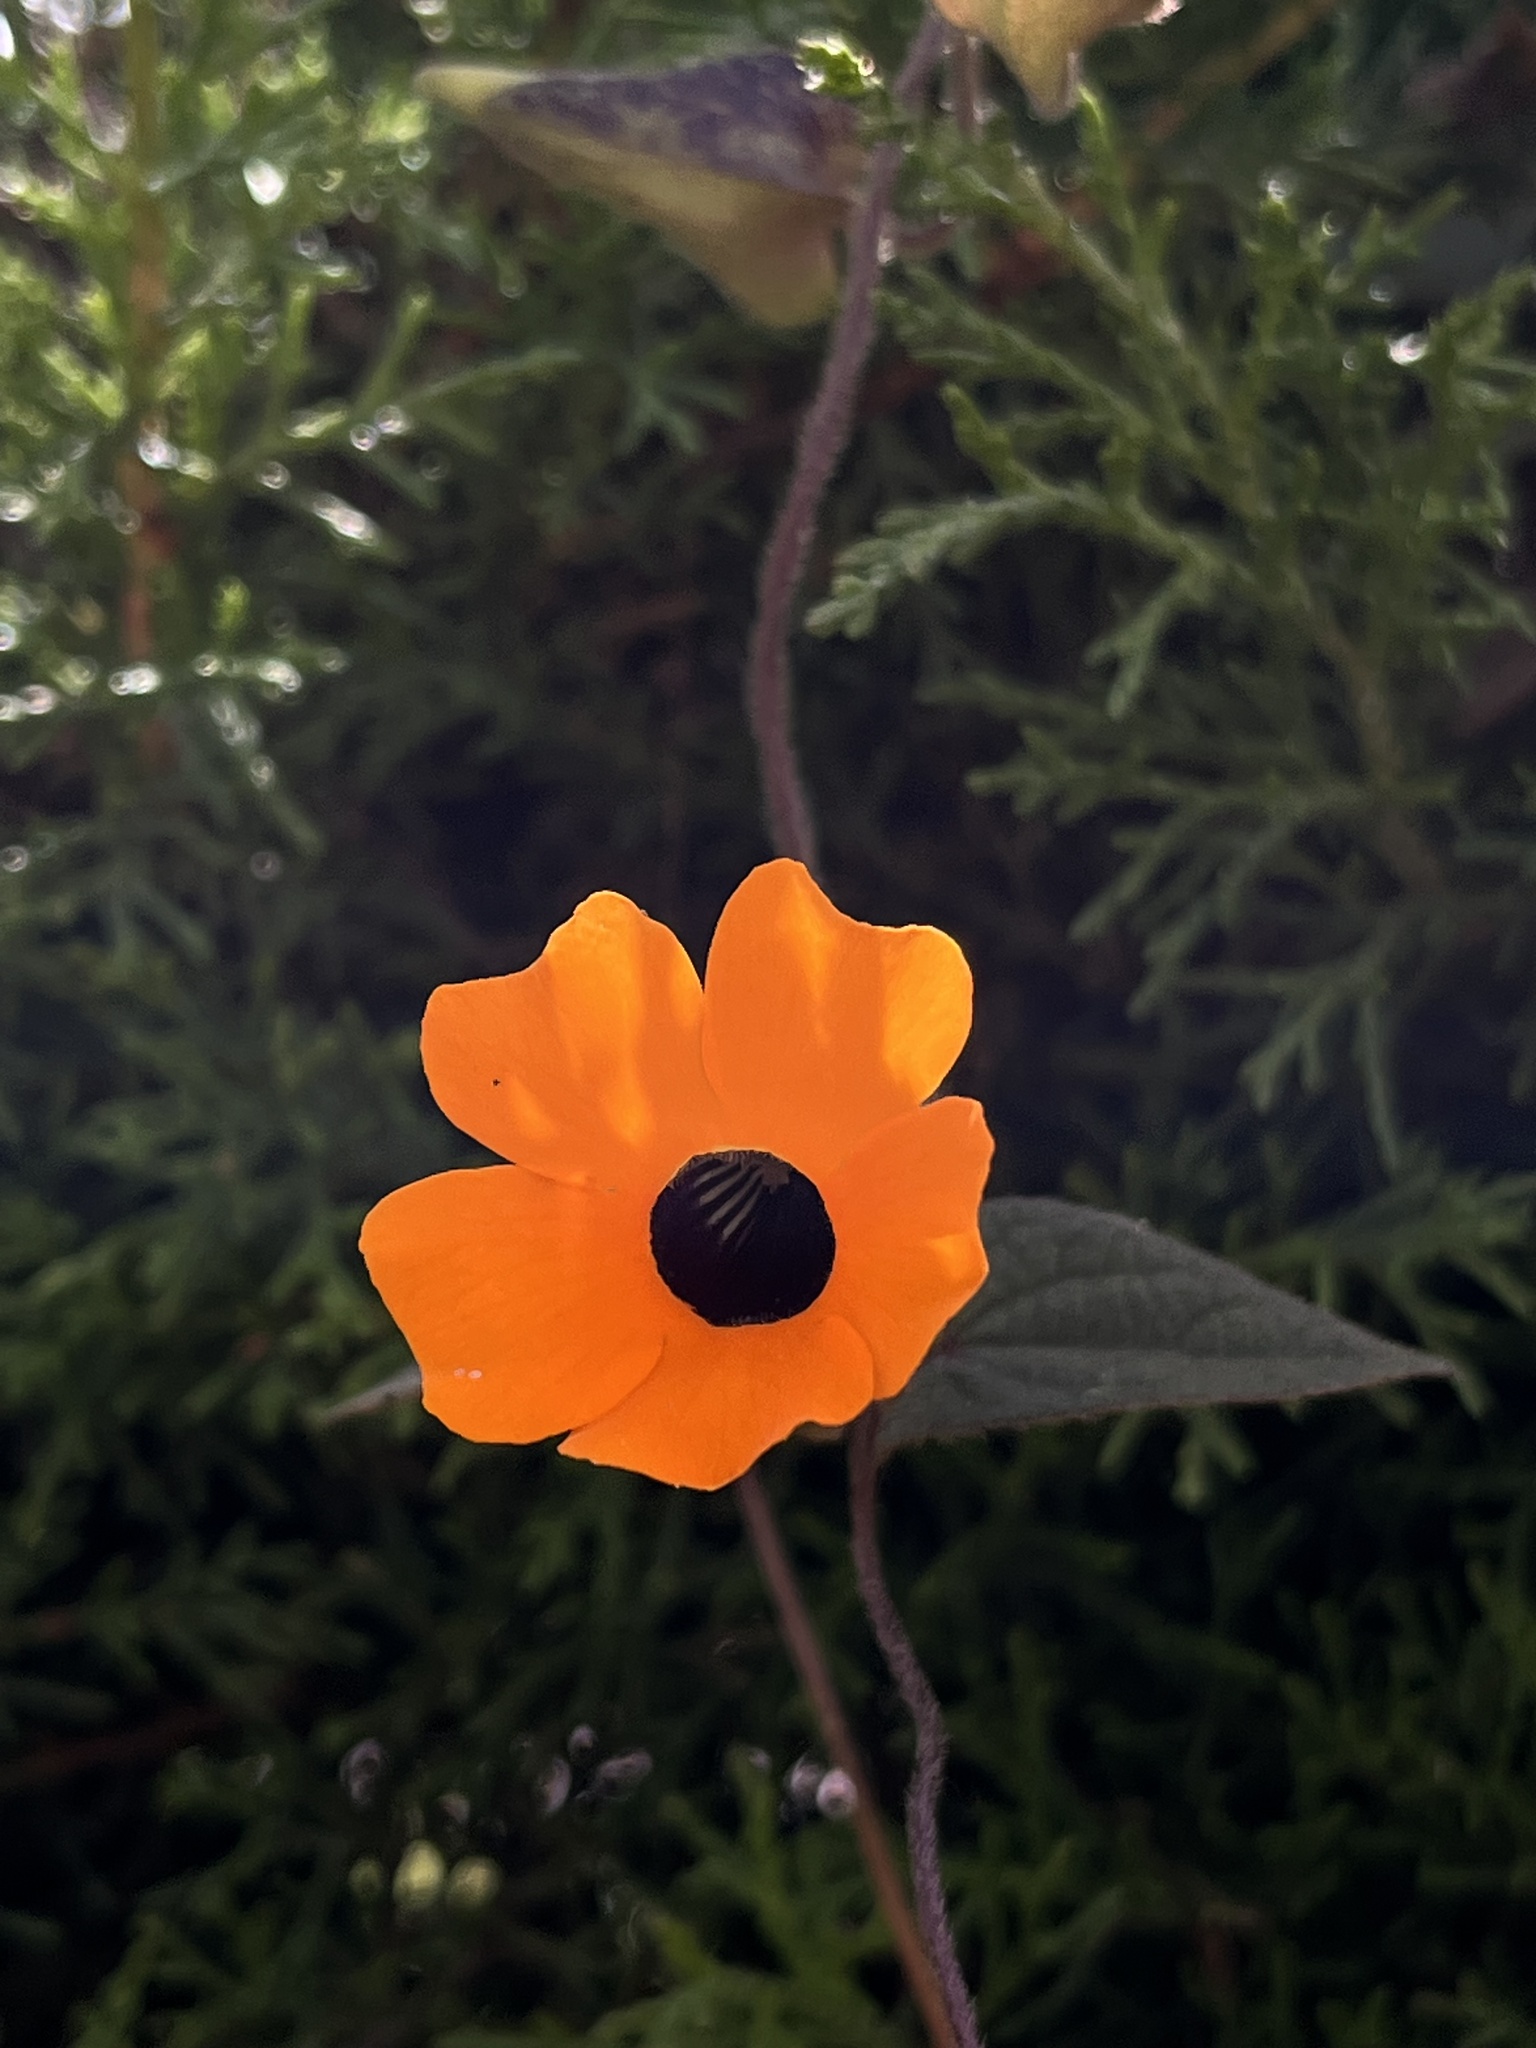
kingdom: Plantae
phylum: Tracheophyta
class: Magnoliopsida
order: Lamiales
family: Acanthaceae
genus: Thunbergia
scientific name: Thunbergia alata
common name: Blackeyed susan vine
